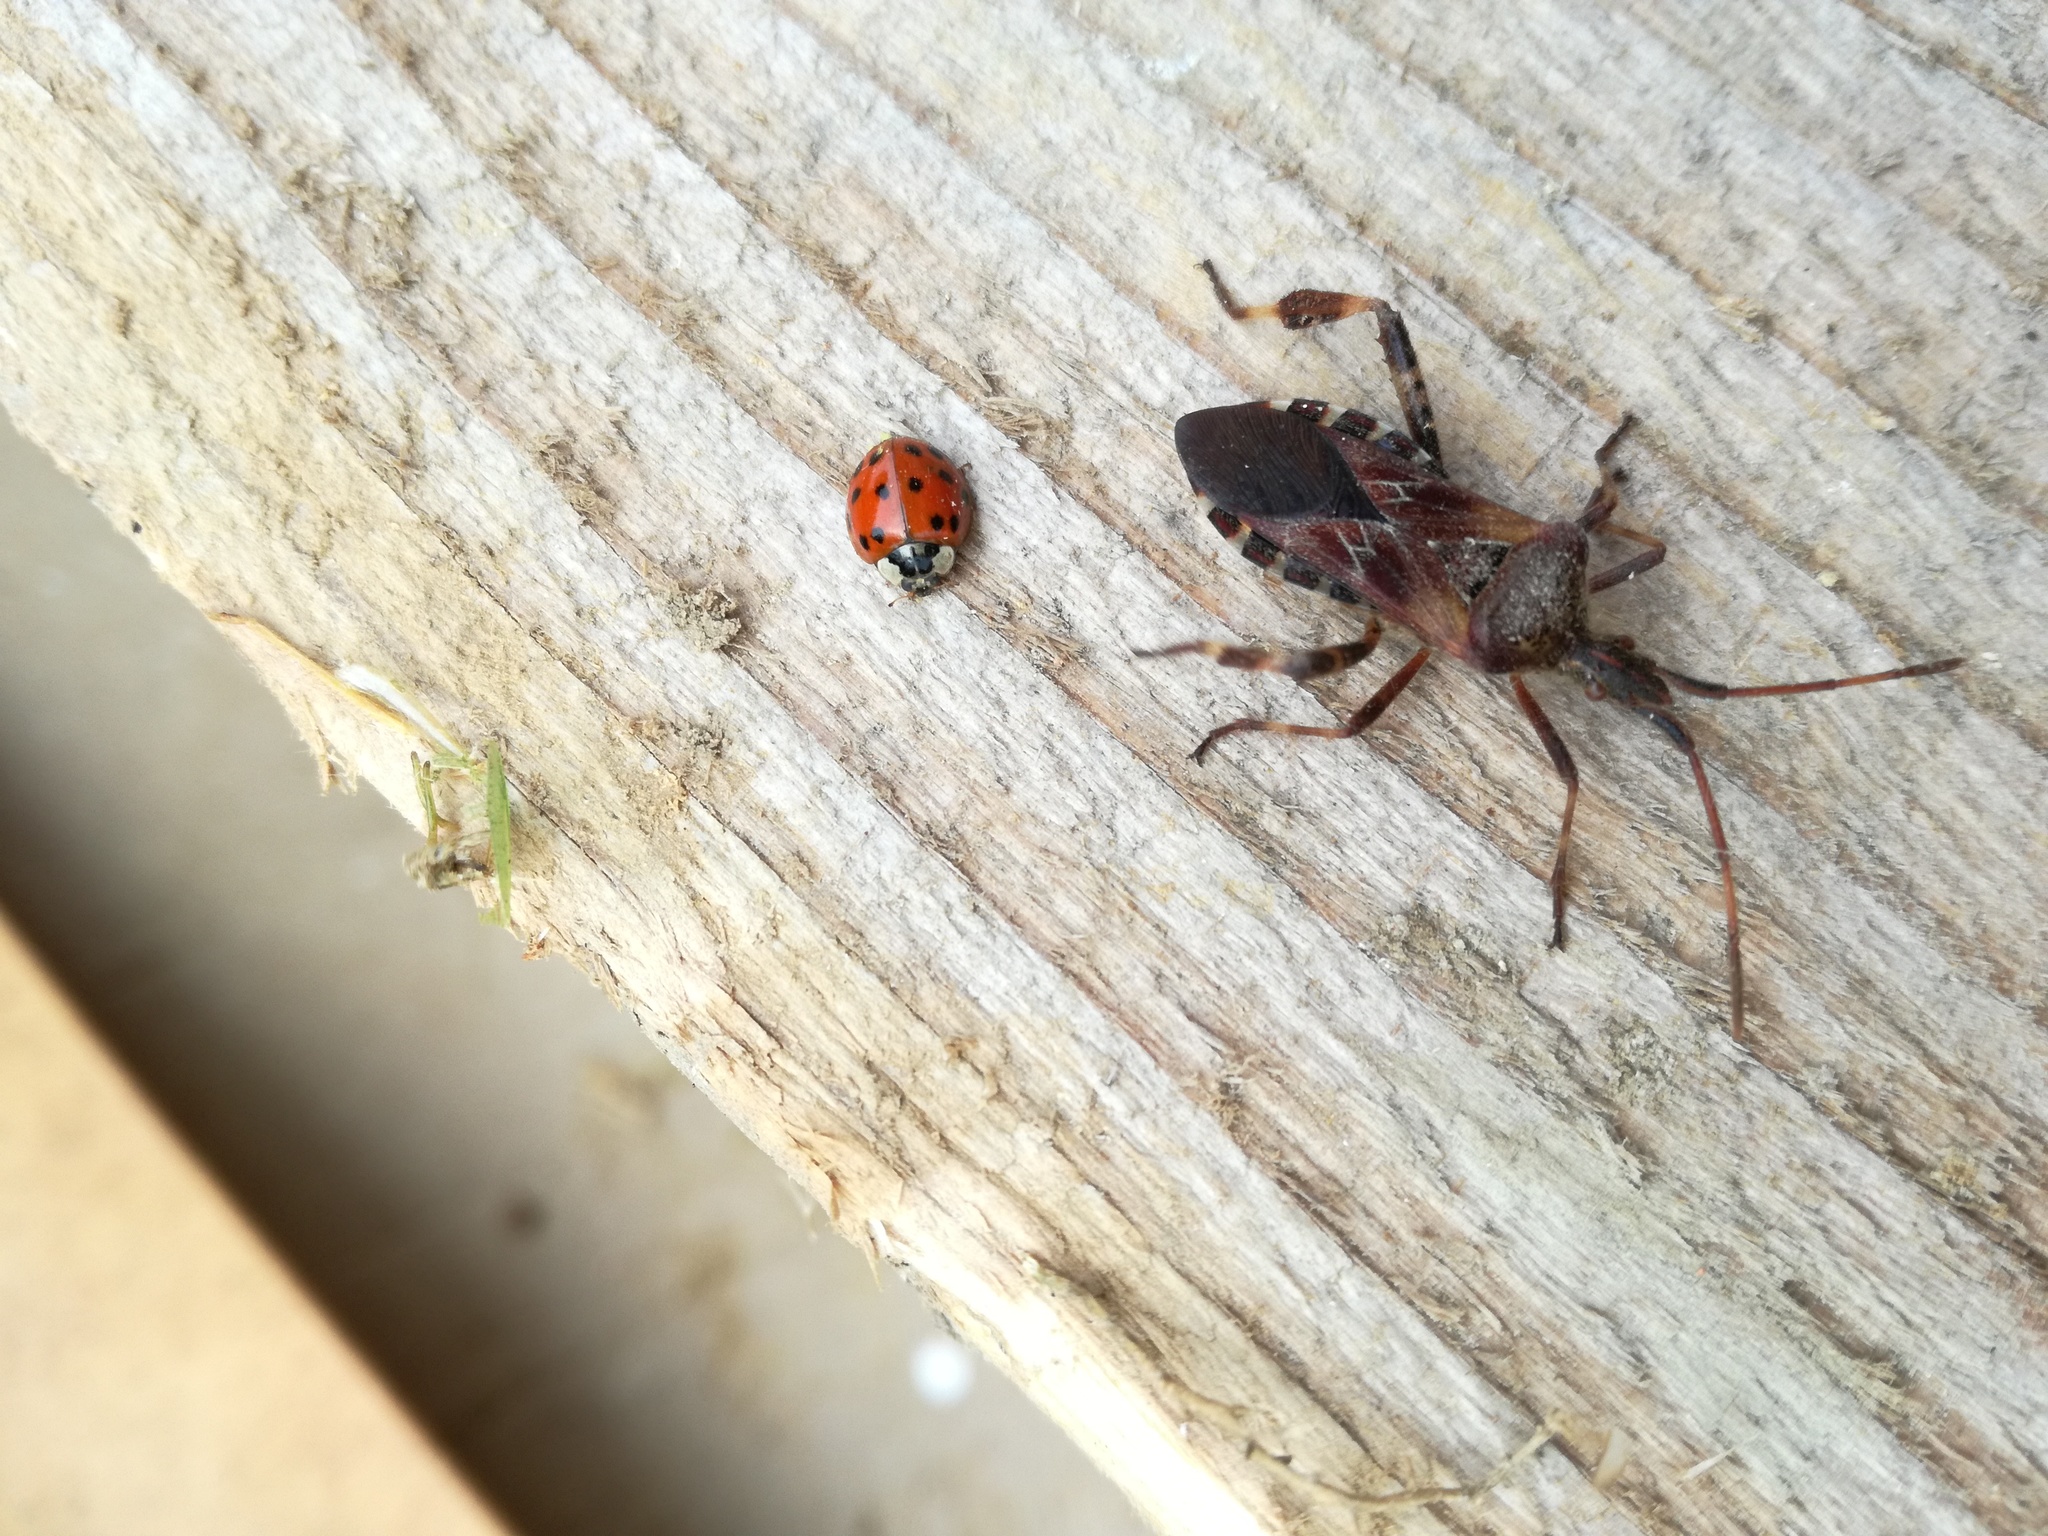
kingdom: Animalia
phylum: Arthropoda
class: Insecta
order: Hemiptera
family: Coreidae
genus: Leptoglossus
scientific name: Leptoglossus occidentalis
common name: Western conifer-seed bug
